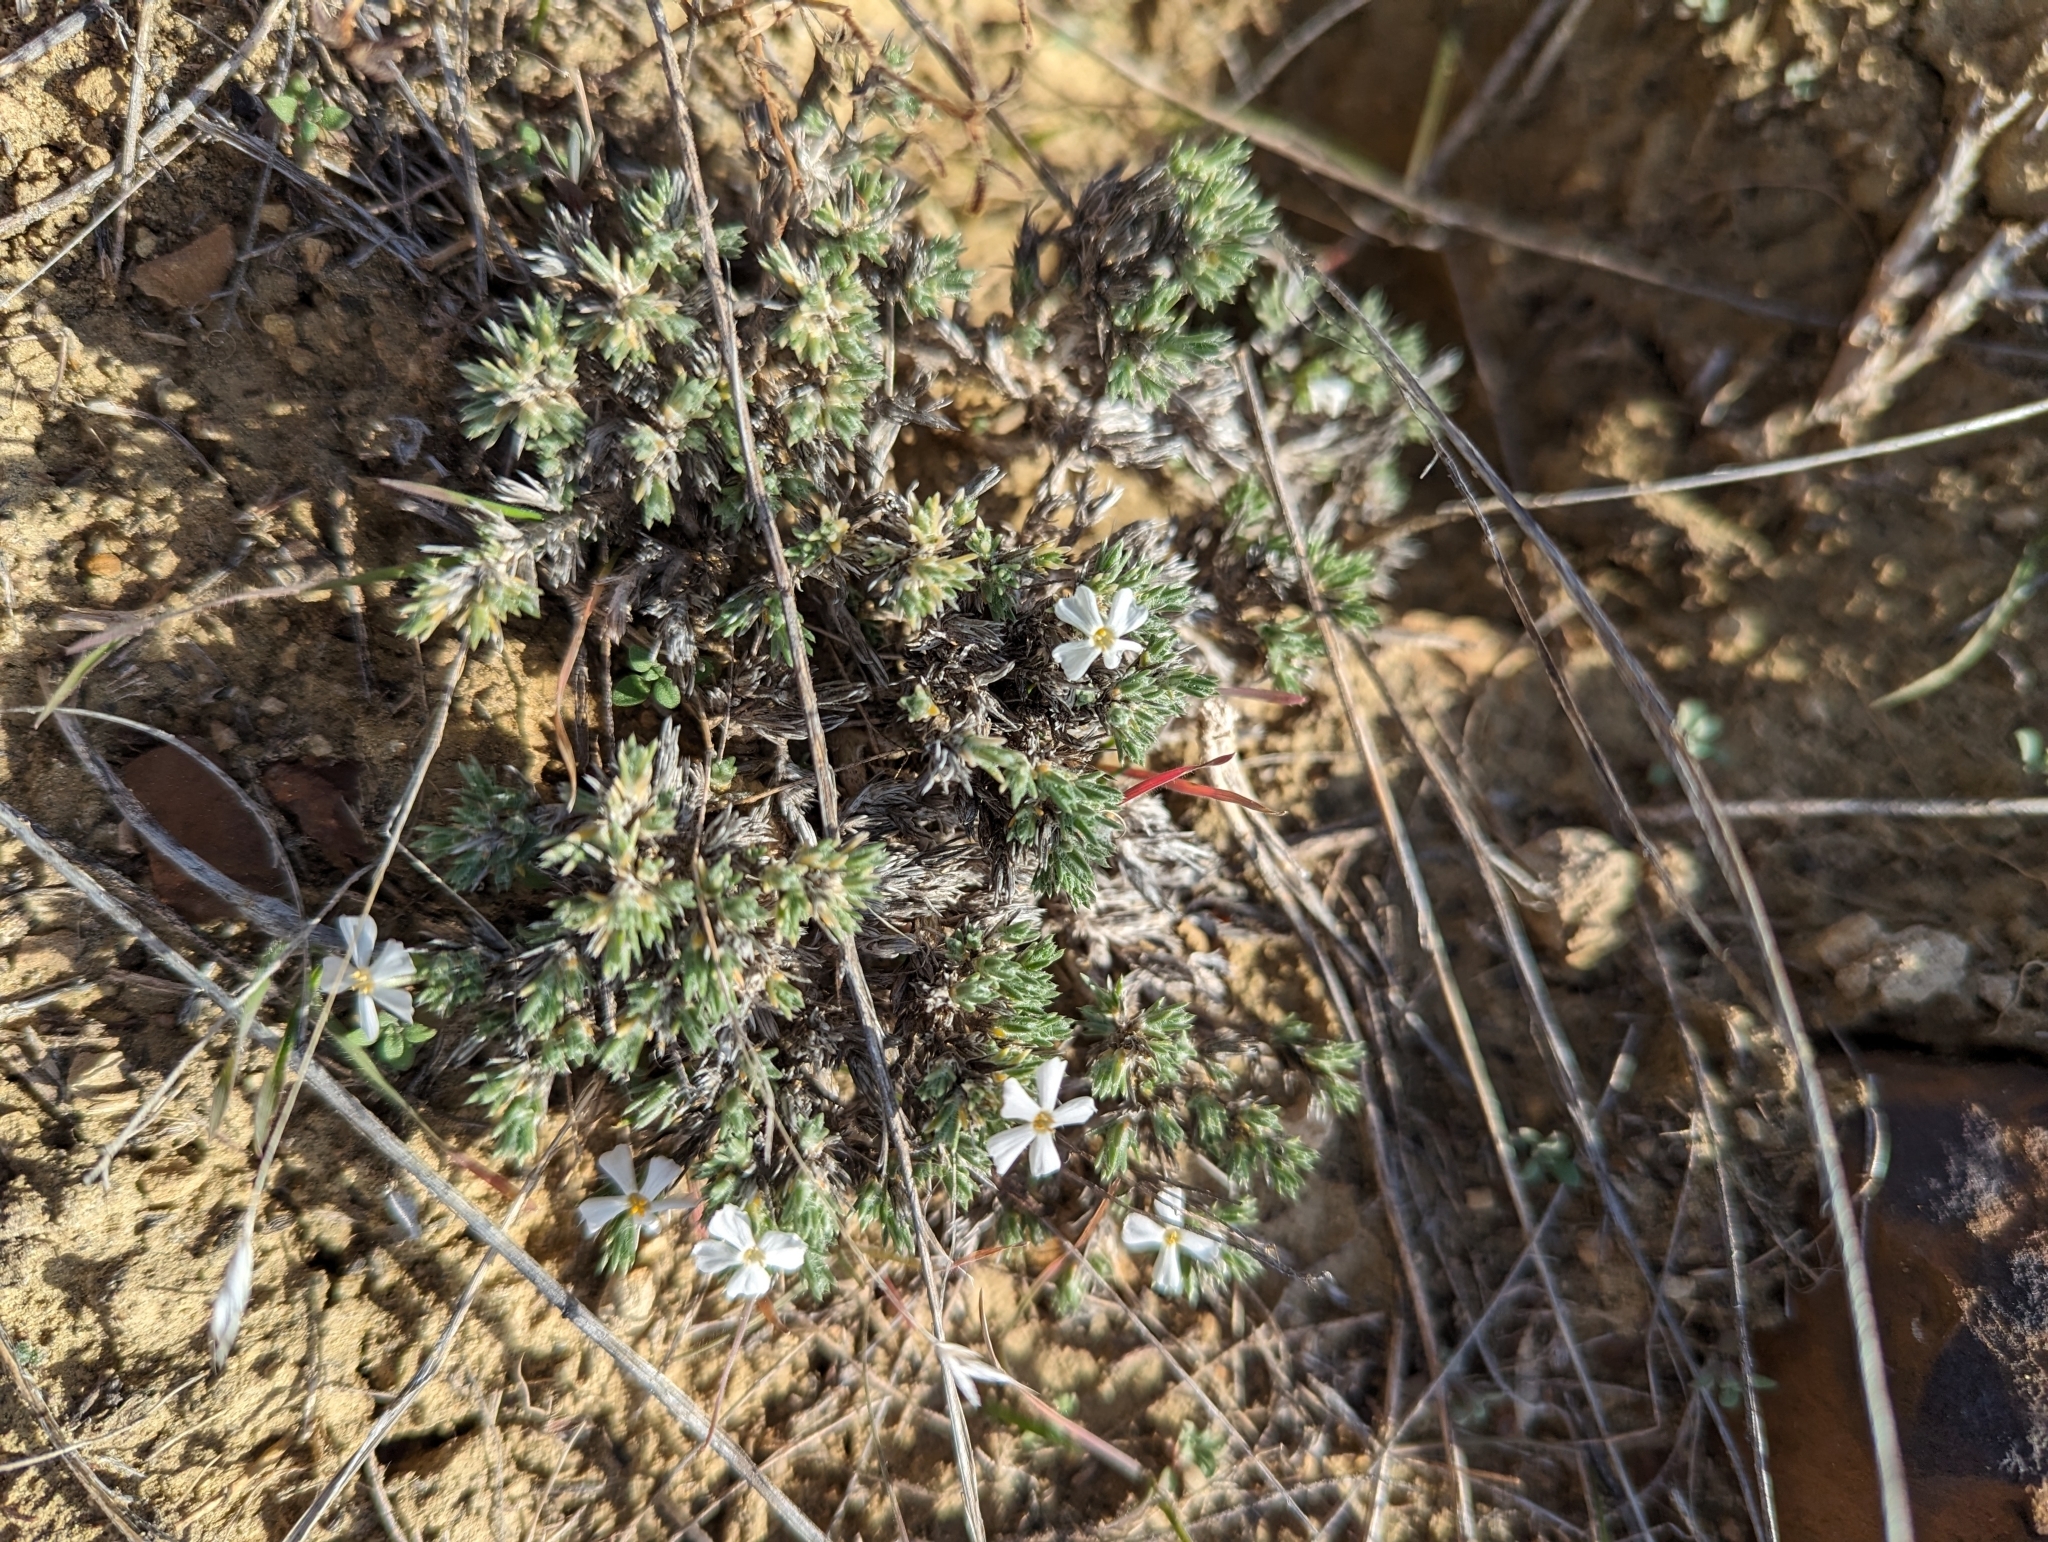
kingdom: Plantae
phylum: Tracheophyta
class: Magnoliopsida
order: Ericales
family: Polemoniaceae
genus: Phlox
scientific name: Phlox hoodii
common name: Moss phlox
